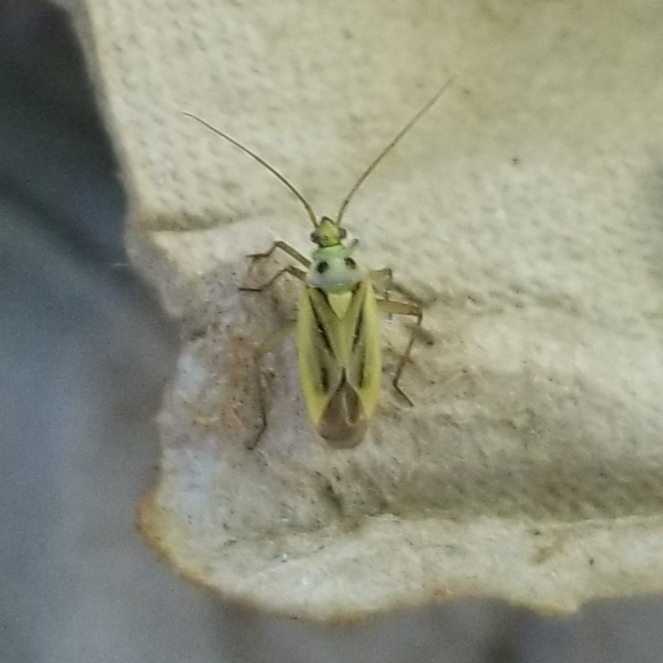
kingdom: Animalia
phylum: Arthropoda
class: Insecta
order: Hemiptera
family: Miridae
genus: Stenotus
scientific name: Stenotus binotatus
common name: Plant bug
